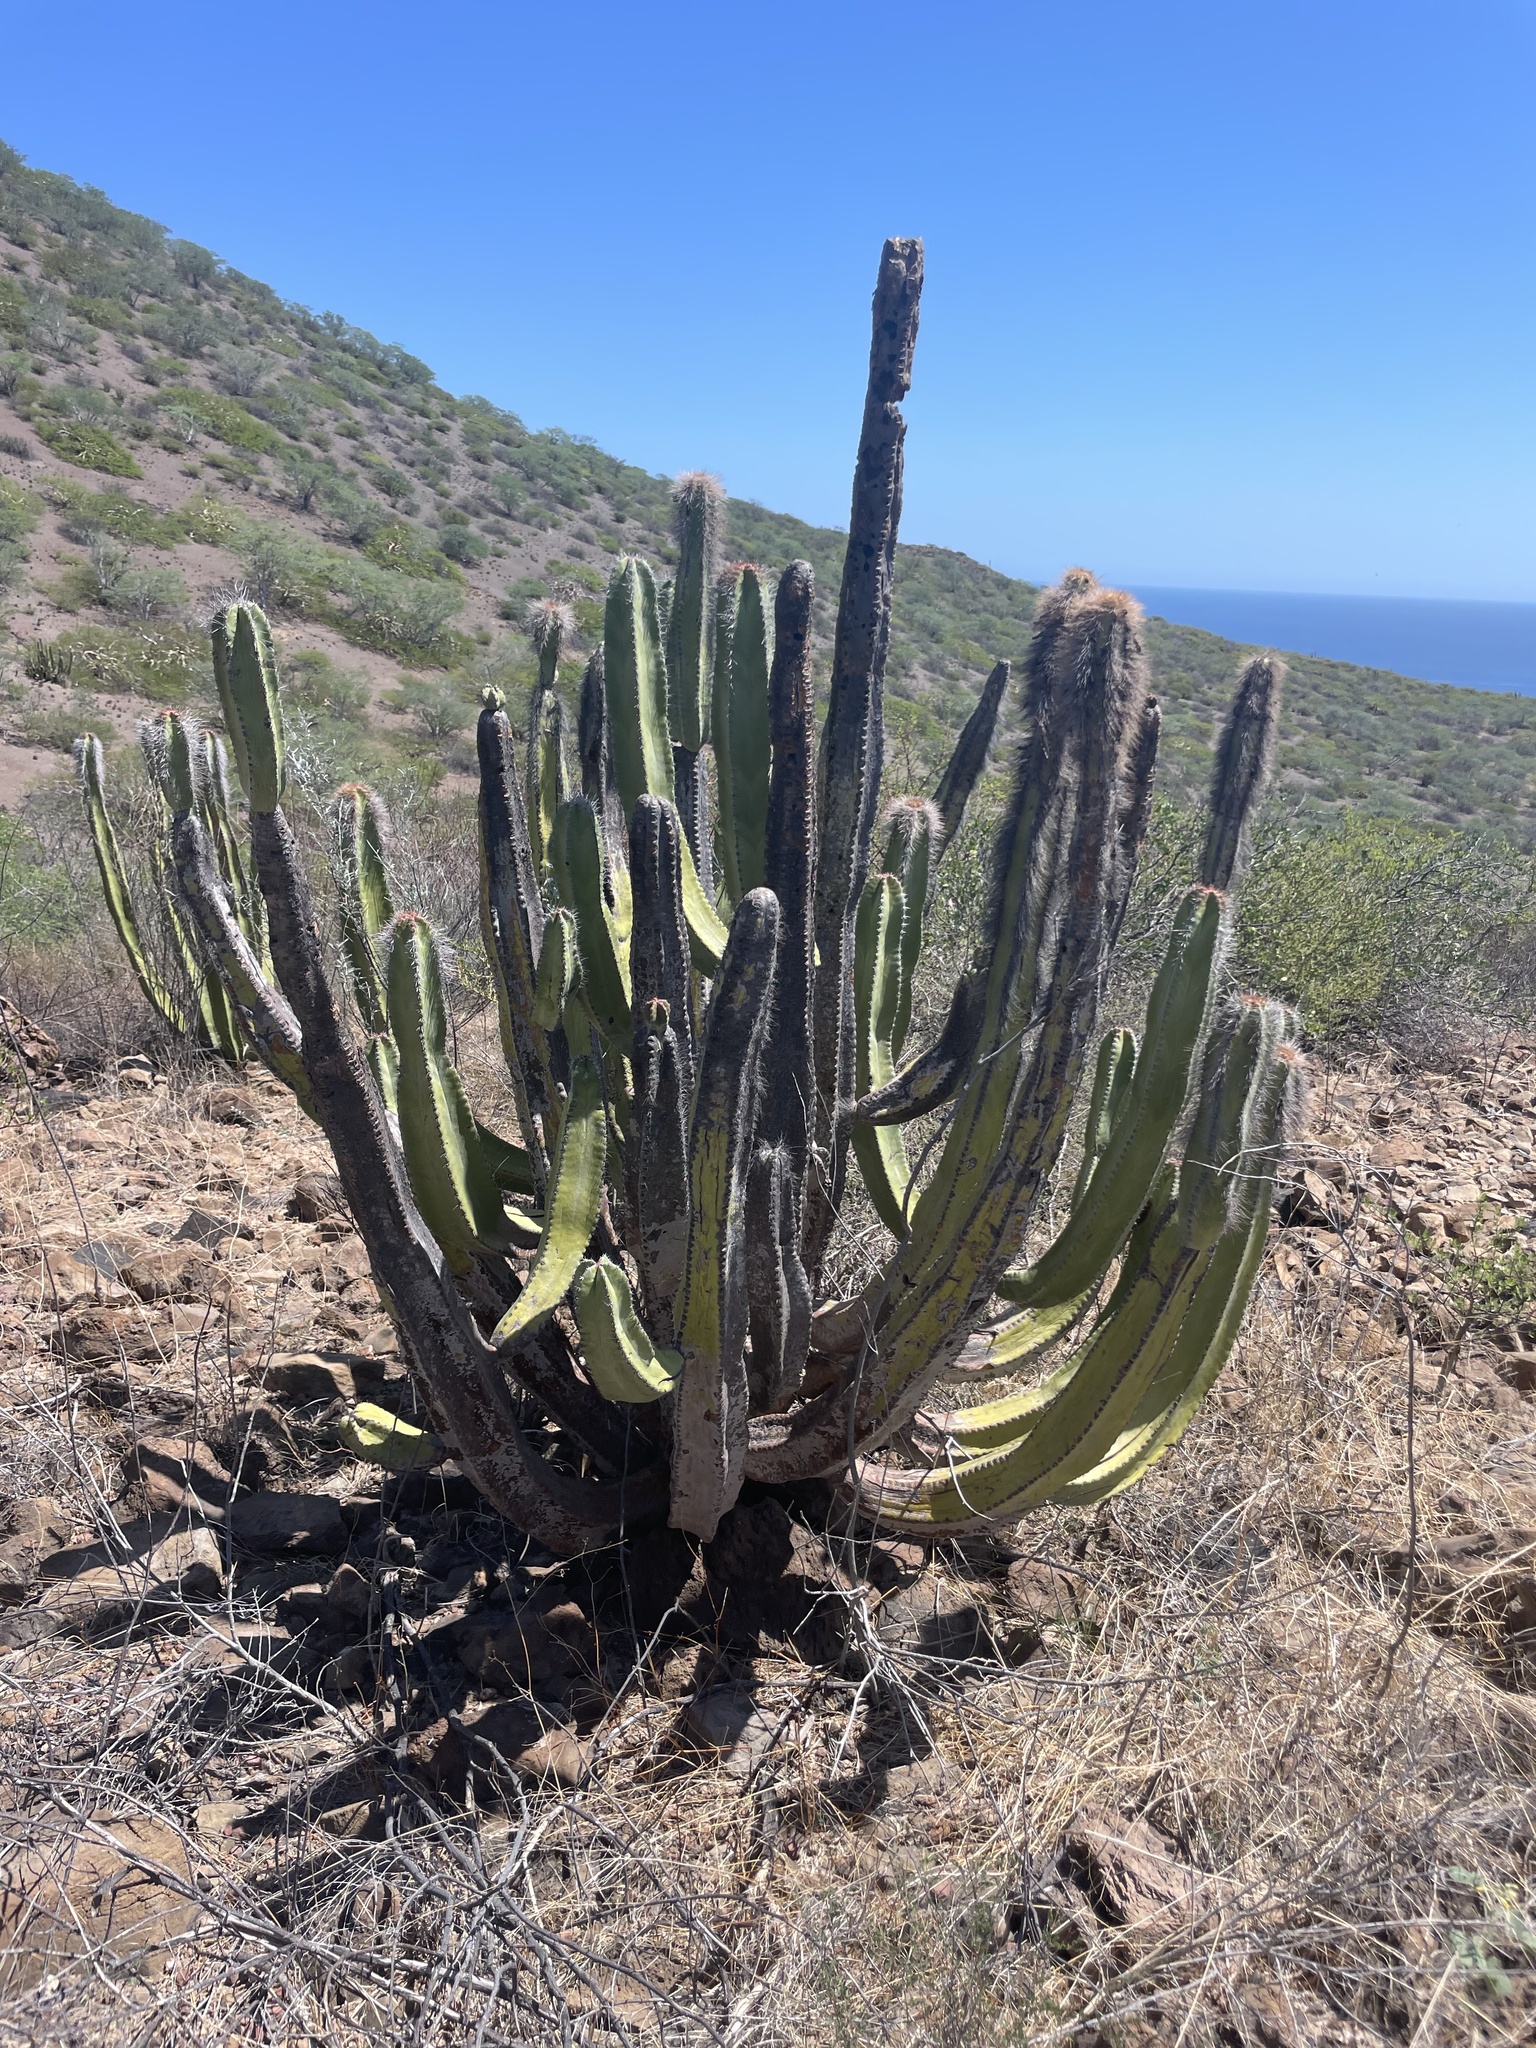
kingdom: Plantae
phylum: Tracheophyta
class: Magnoliopsida
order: Caryophyllales
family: Cactaceae
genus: Pachycereus
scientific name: Pachycereus schottii
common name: Senita cactus
